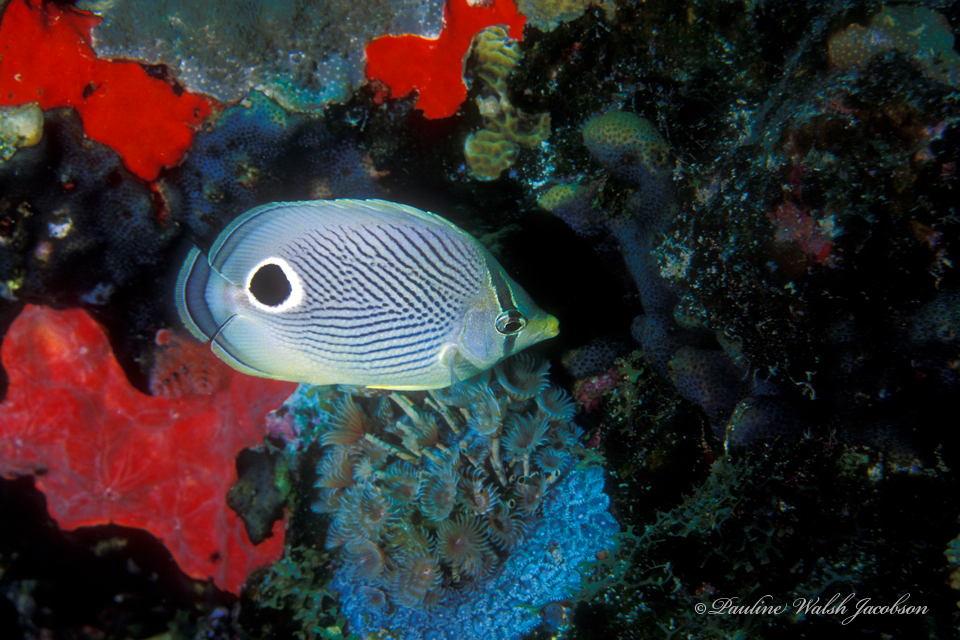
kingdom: Animalia
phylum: Chordata
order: Perciformes
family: Chaetodontidae
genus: Chaetodon
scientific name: Chaetodon capistratus
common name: Kete
